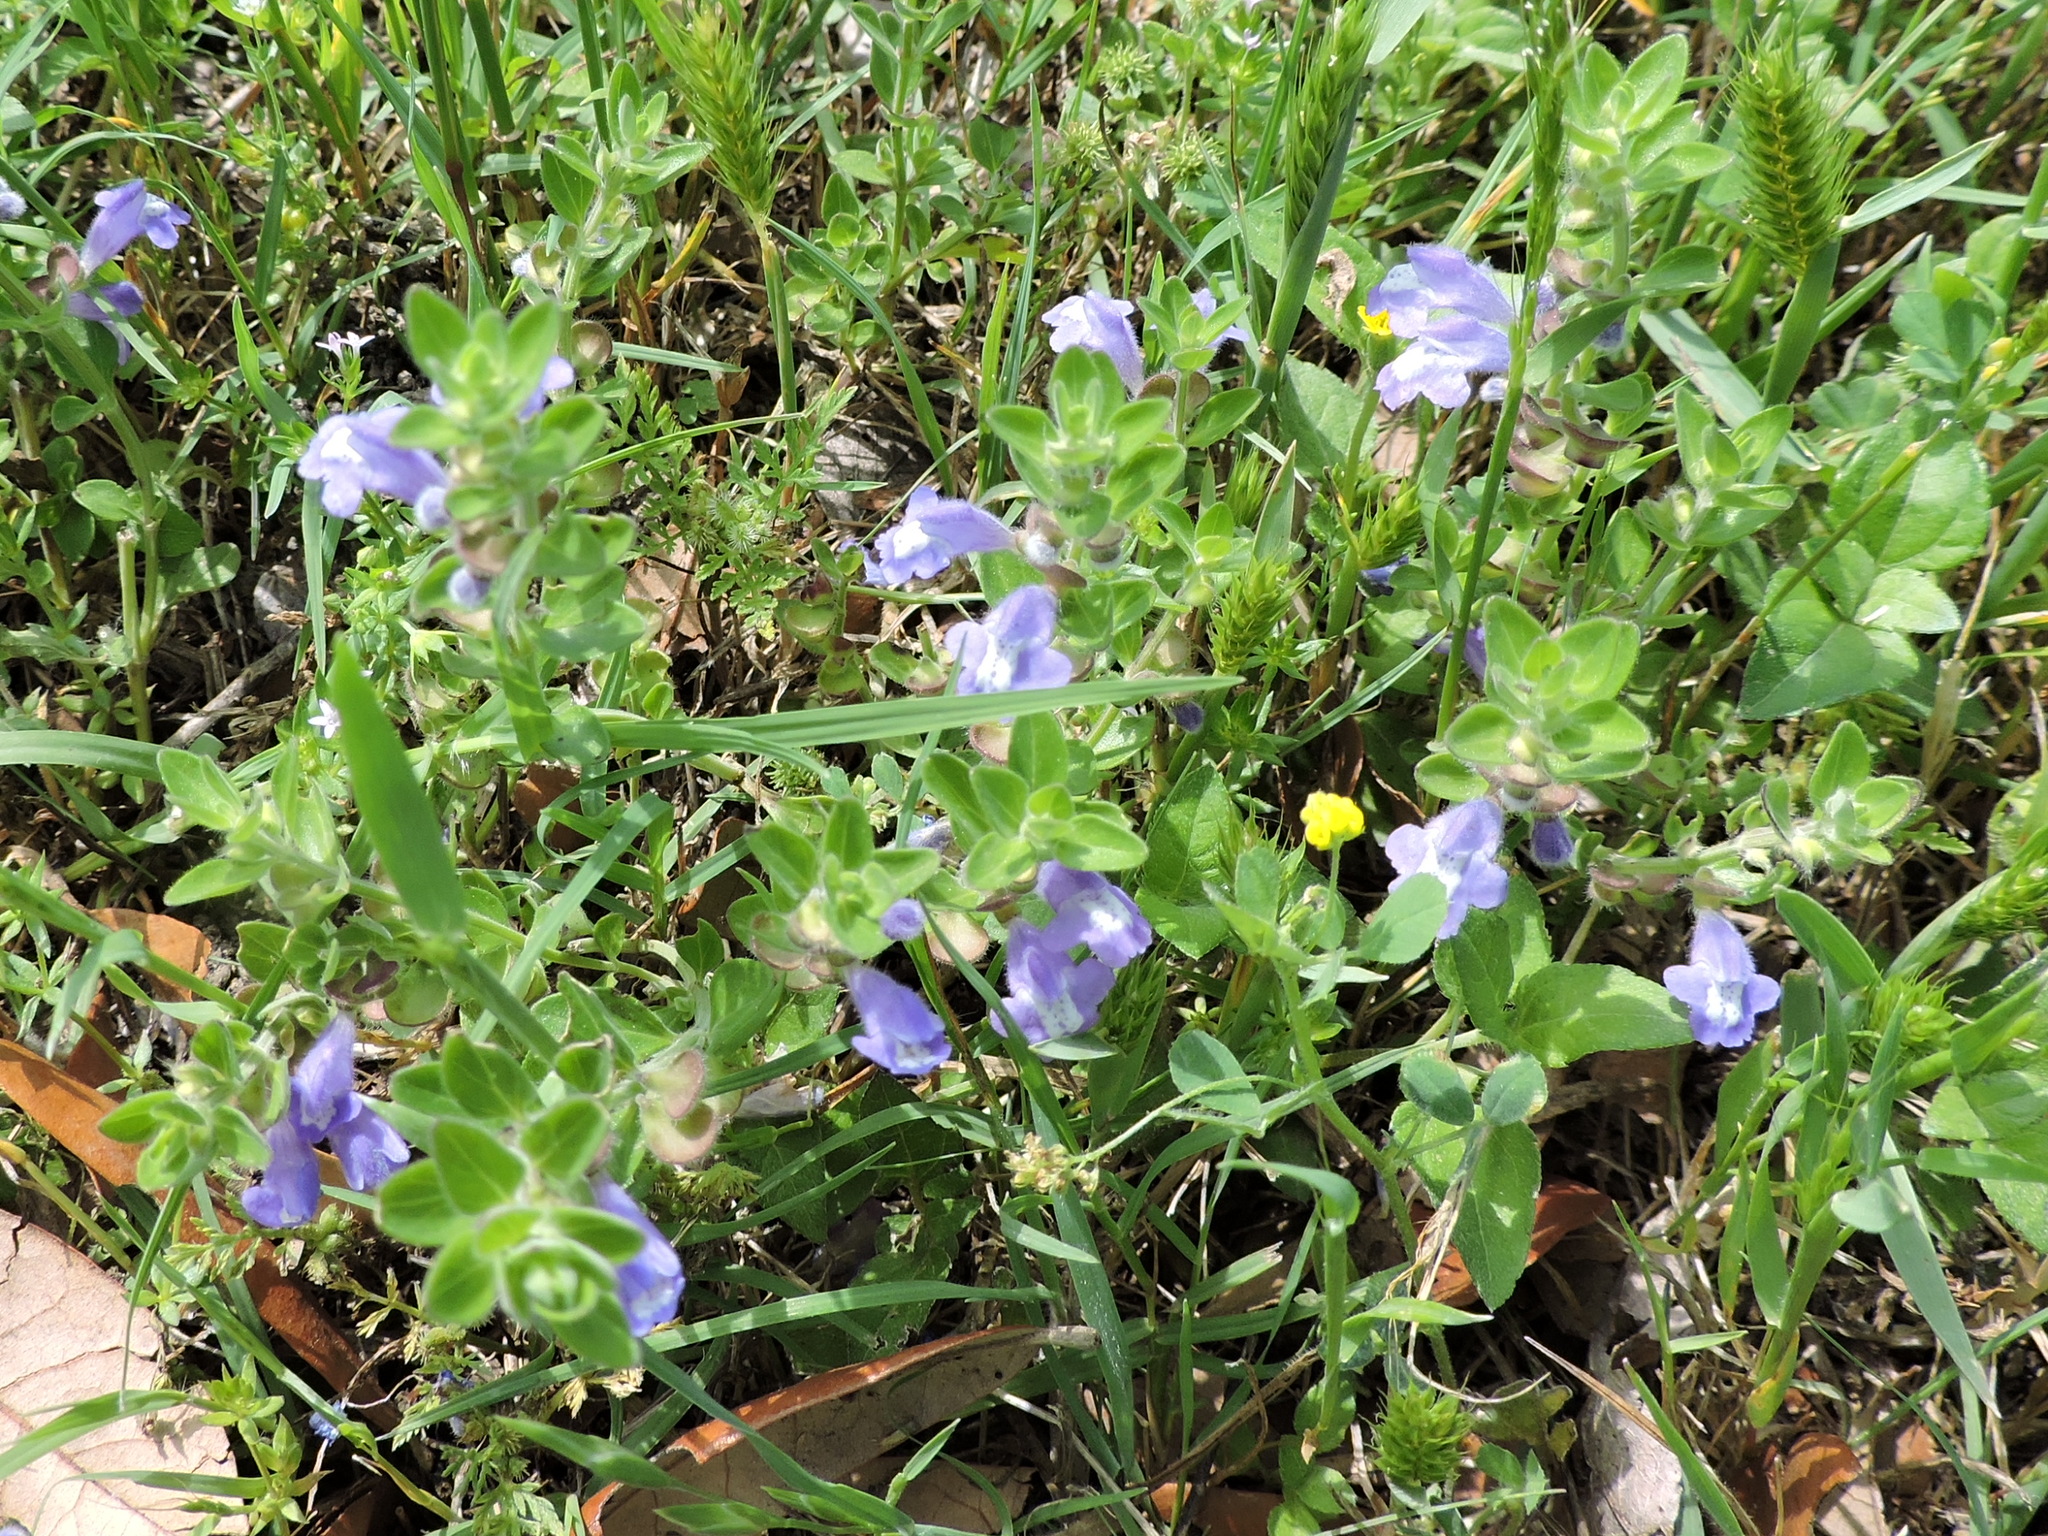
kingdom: Plantae
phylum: Tracheophyta
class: Magnoliopsida
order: Lamiales
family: Lamiaceae
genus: Scutellaria
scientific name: Scutellaria drummondii
